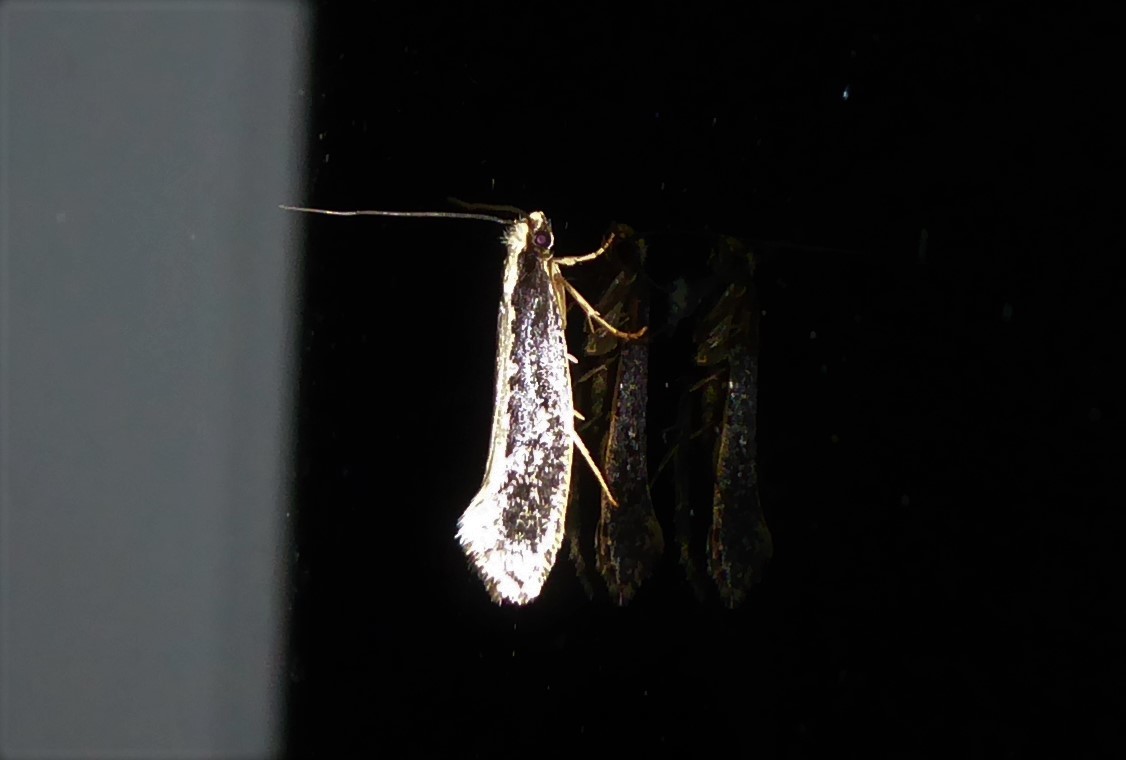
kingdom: Animalia
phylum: Arthropoda
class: Insecta
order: Lepidoptera
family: Tineidae
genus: Monopis
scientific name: Monopis ethelella
